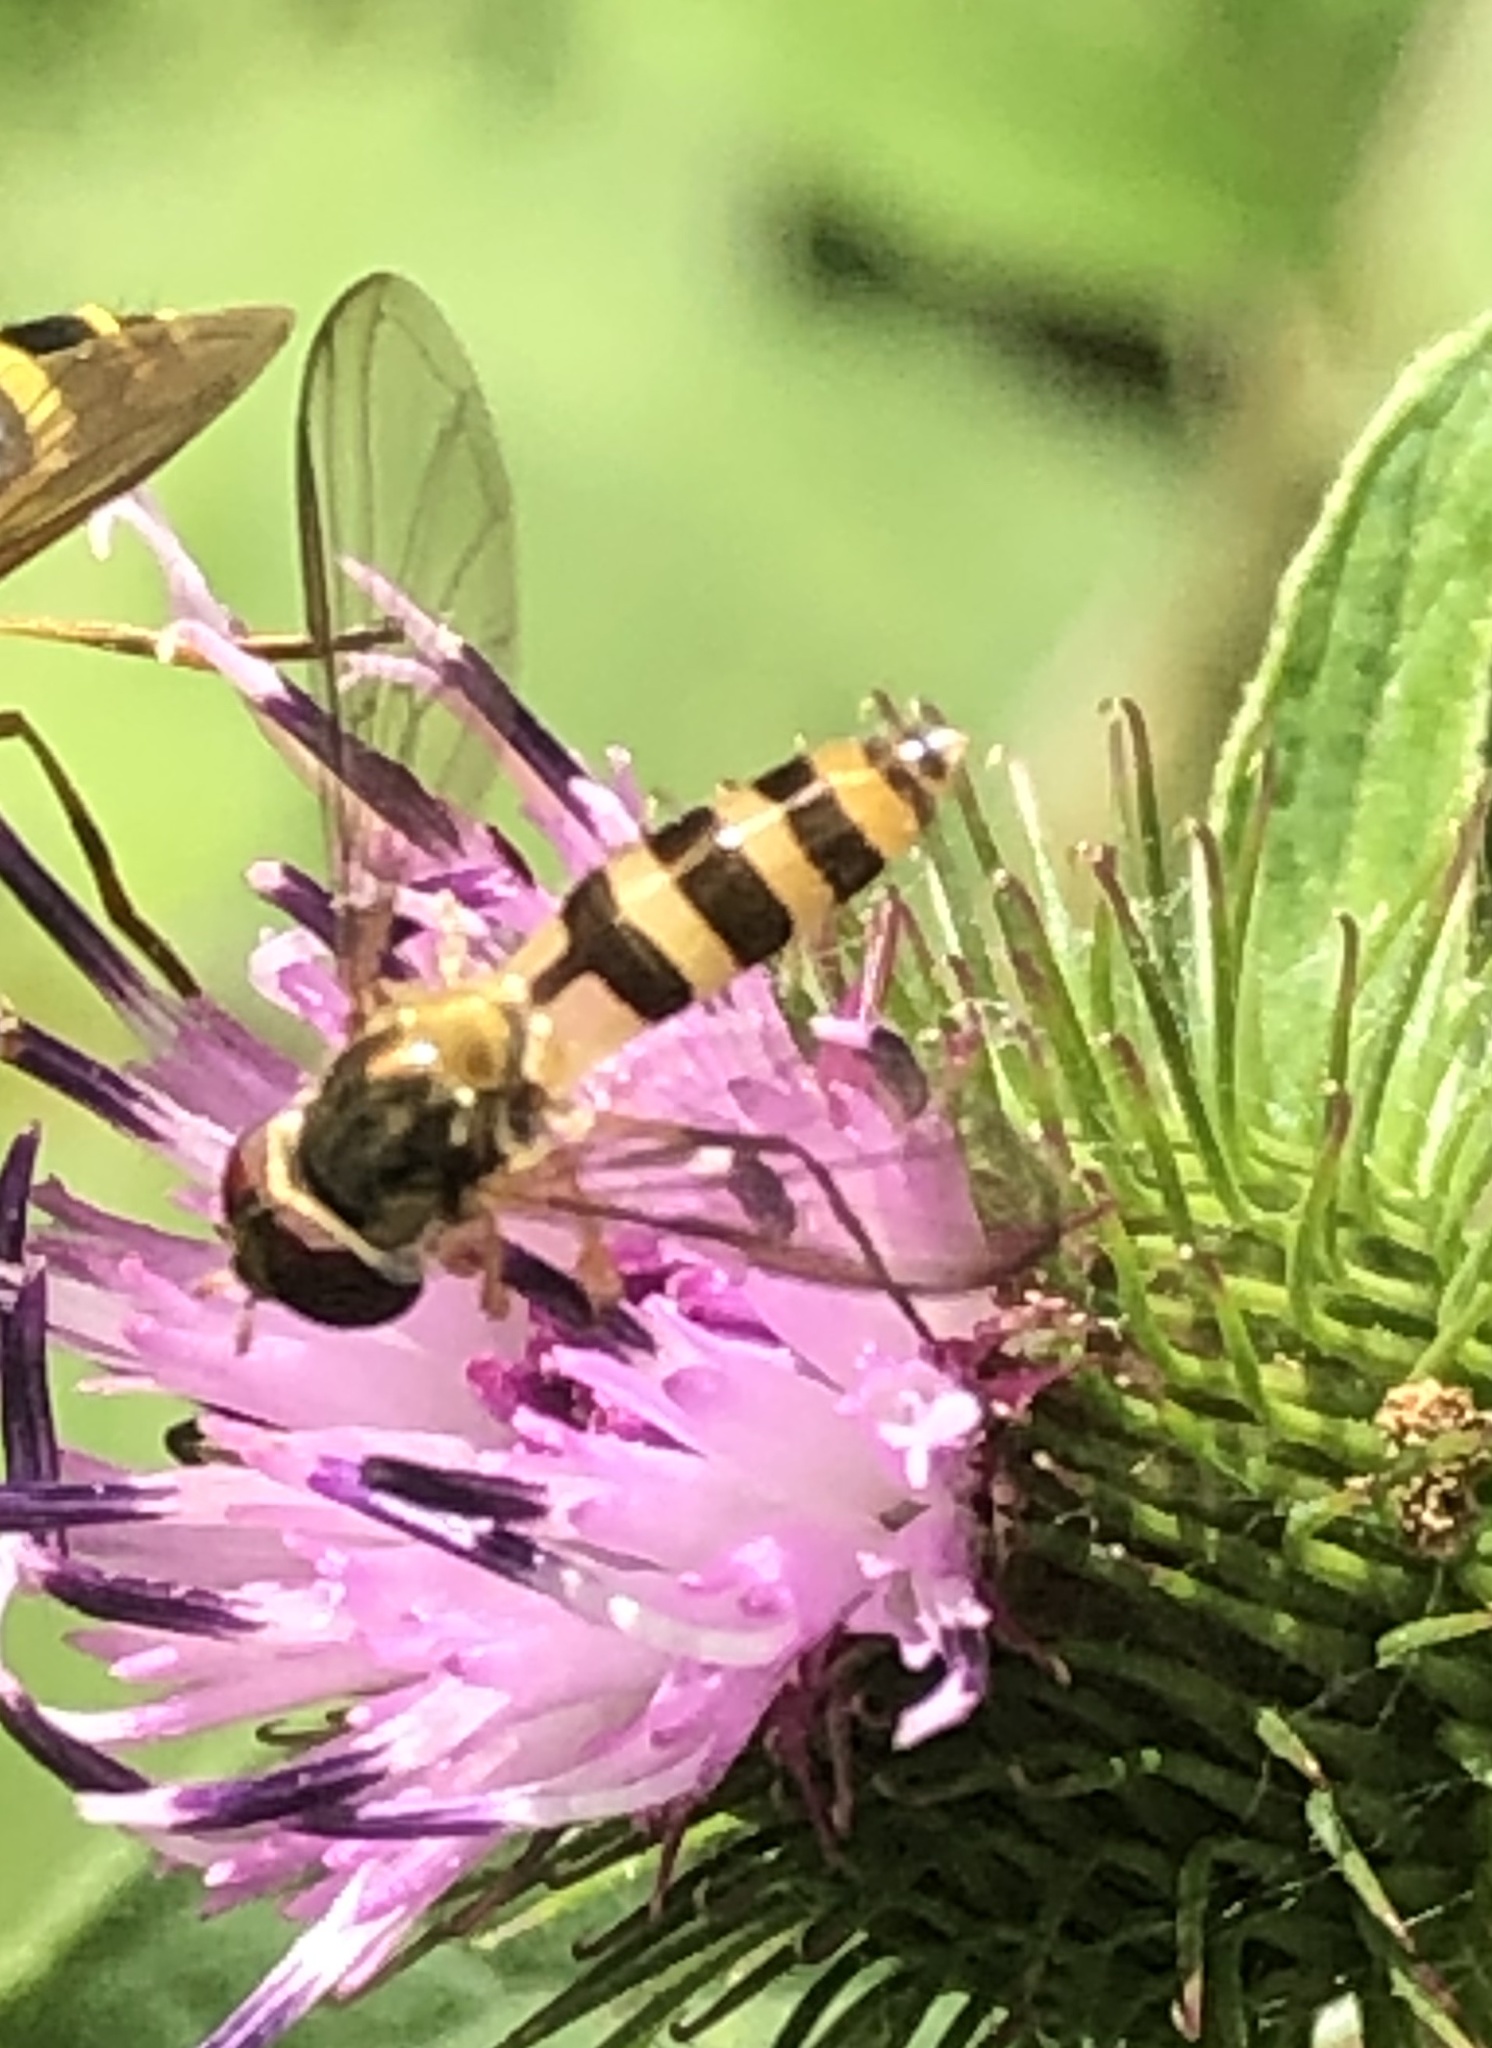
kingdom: Animalia
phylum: Arthropoda
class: Insecta
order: Diptera
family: Syrphidae
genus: Meliscaeva
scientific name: Meliscaeva cinctella
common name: American thintail fly
